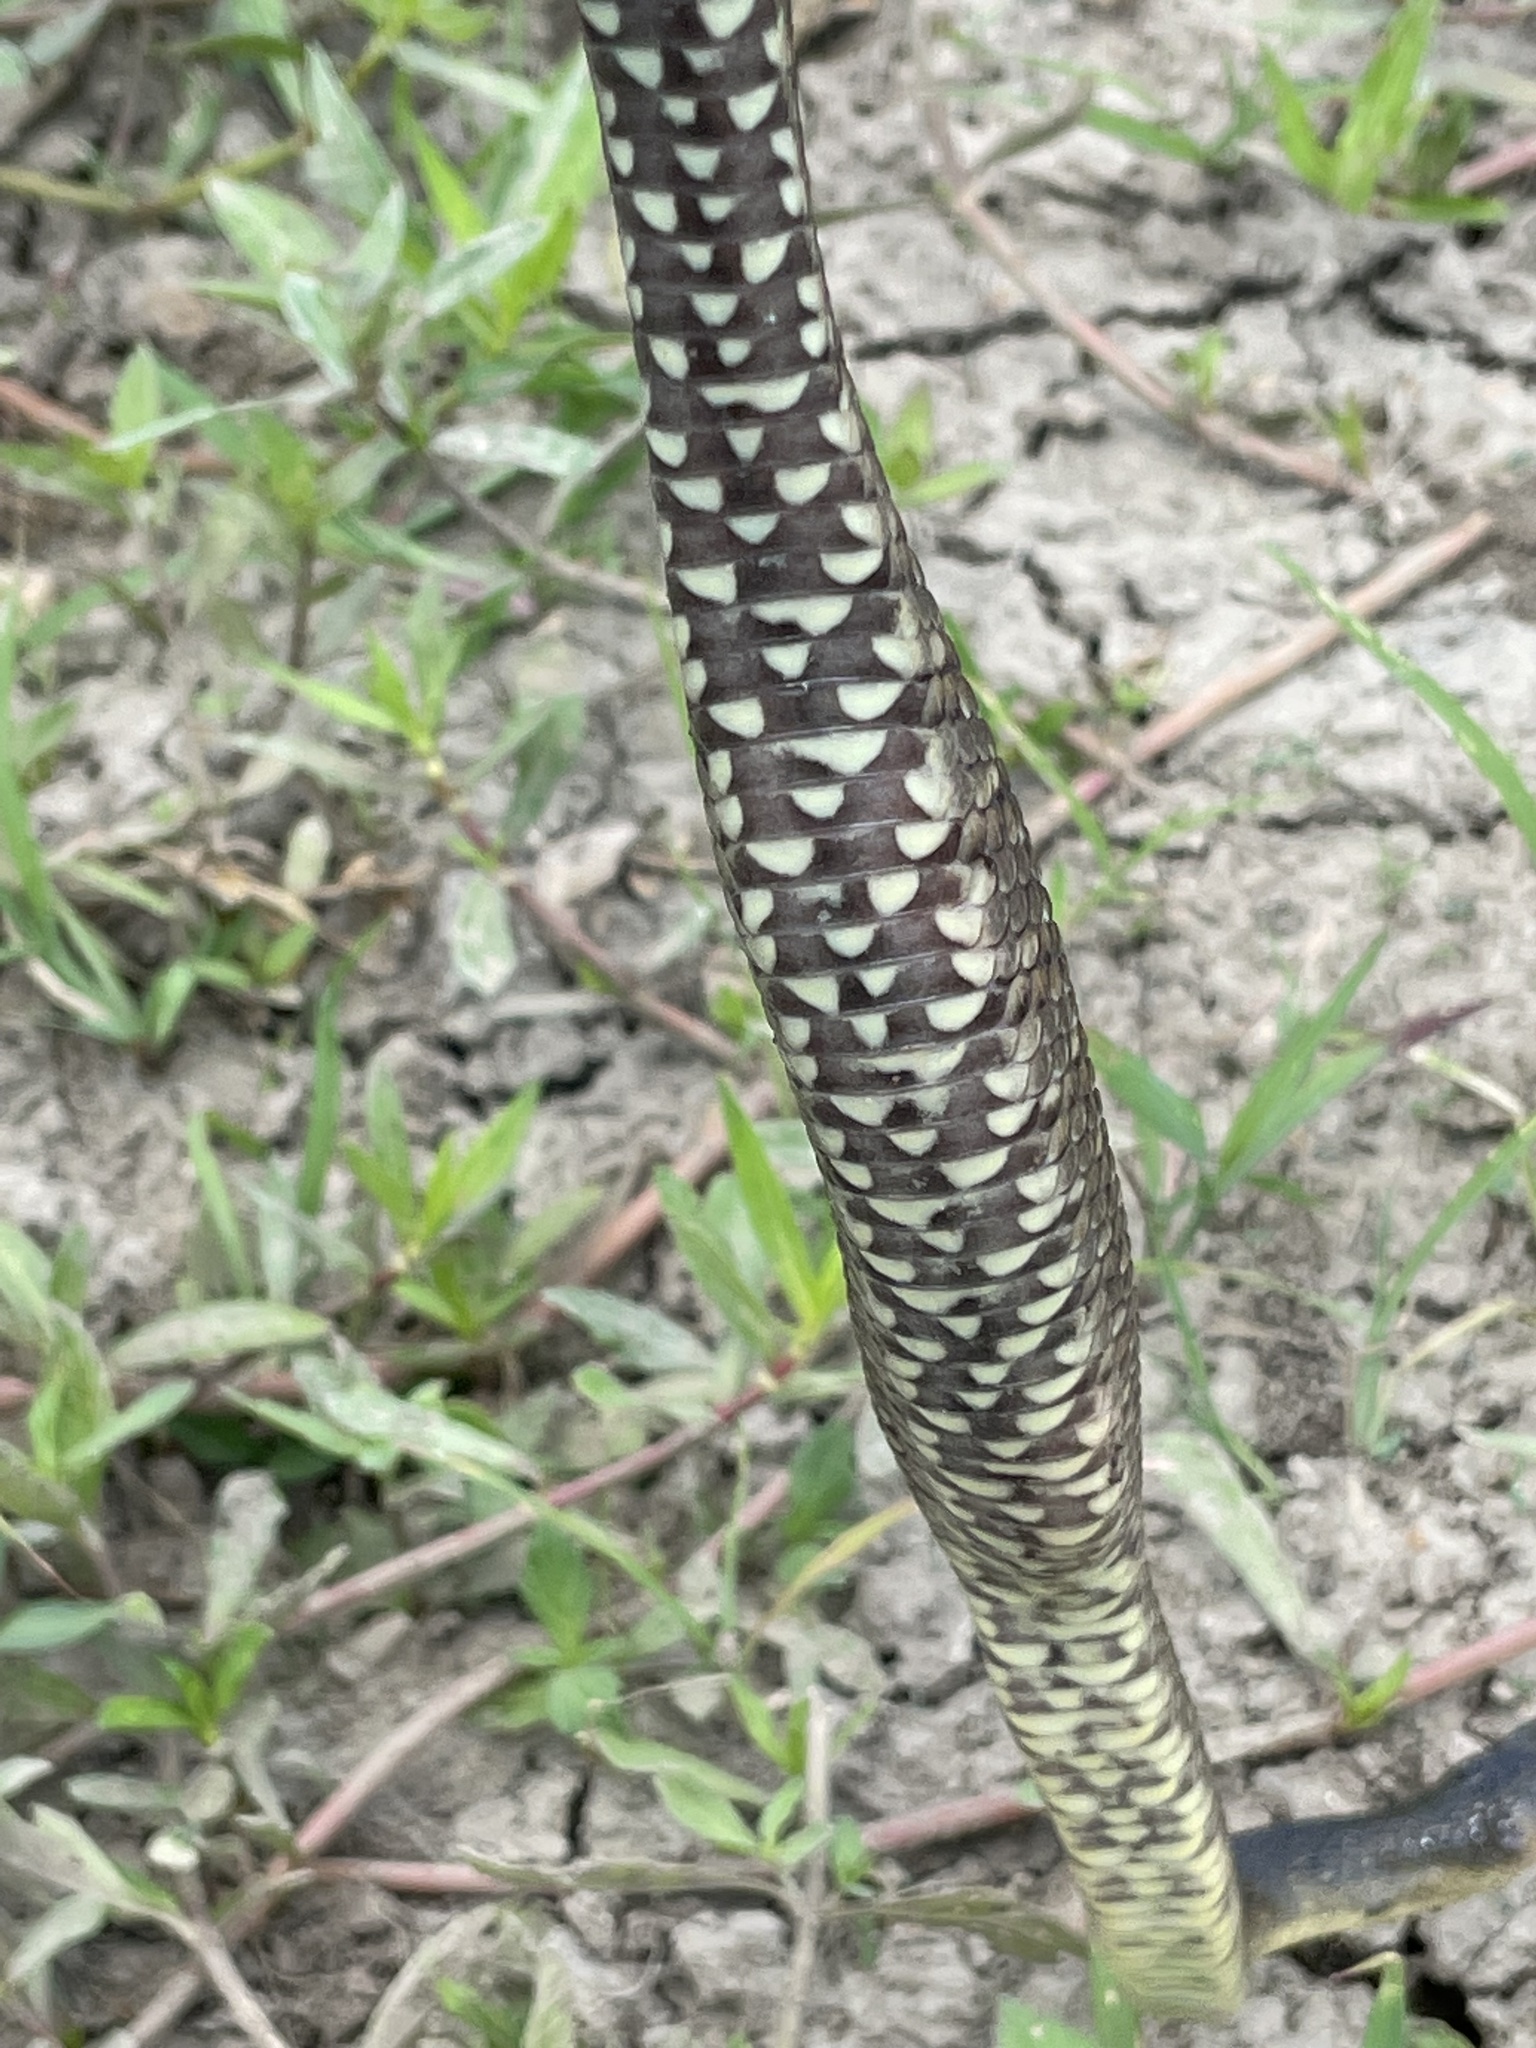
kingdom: Animalia
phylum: Chordata
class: Squamata
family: Colubridae
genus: Nerodia
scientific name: Nerodia cyclopion
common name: Mississippi green water snake
